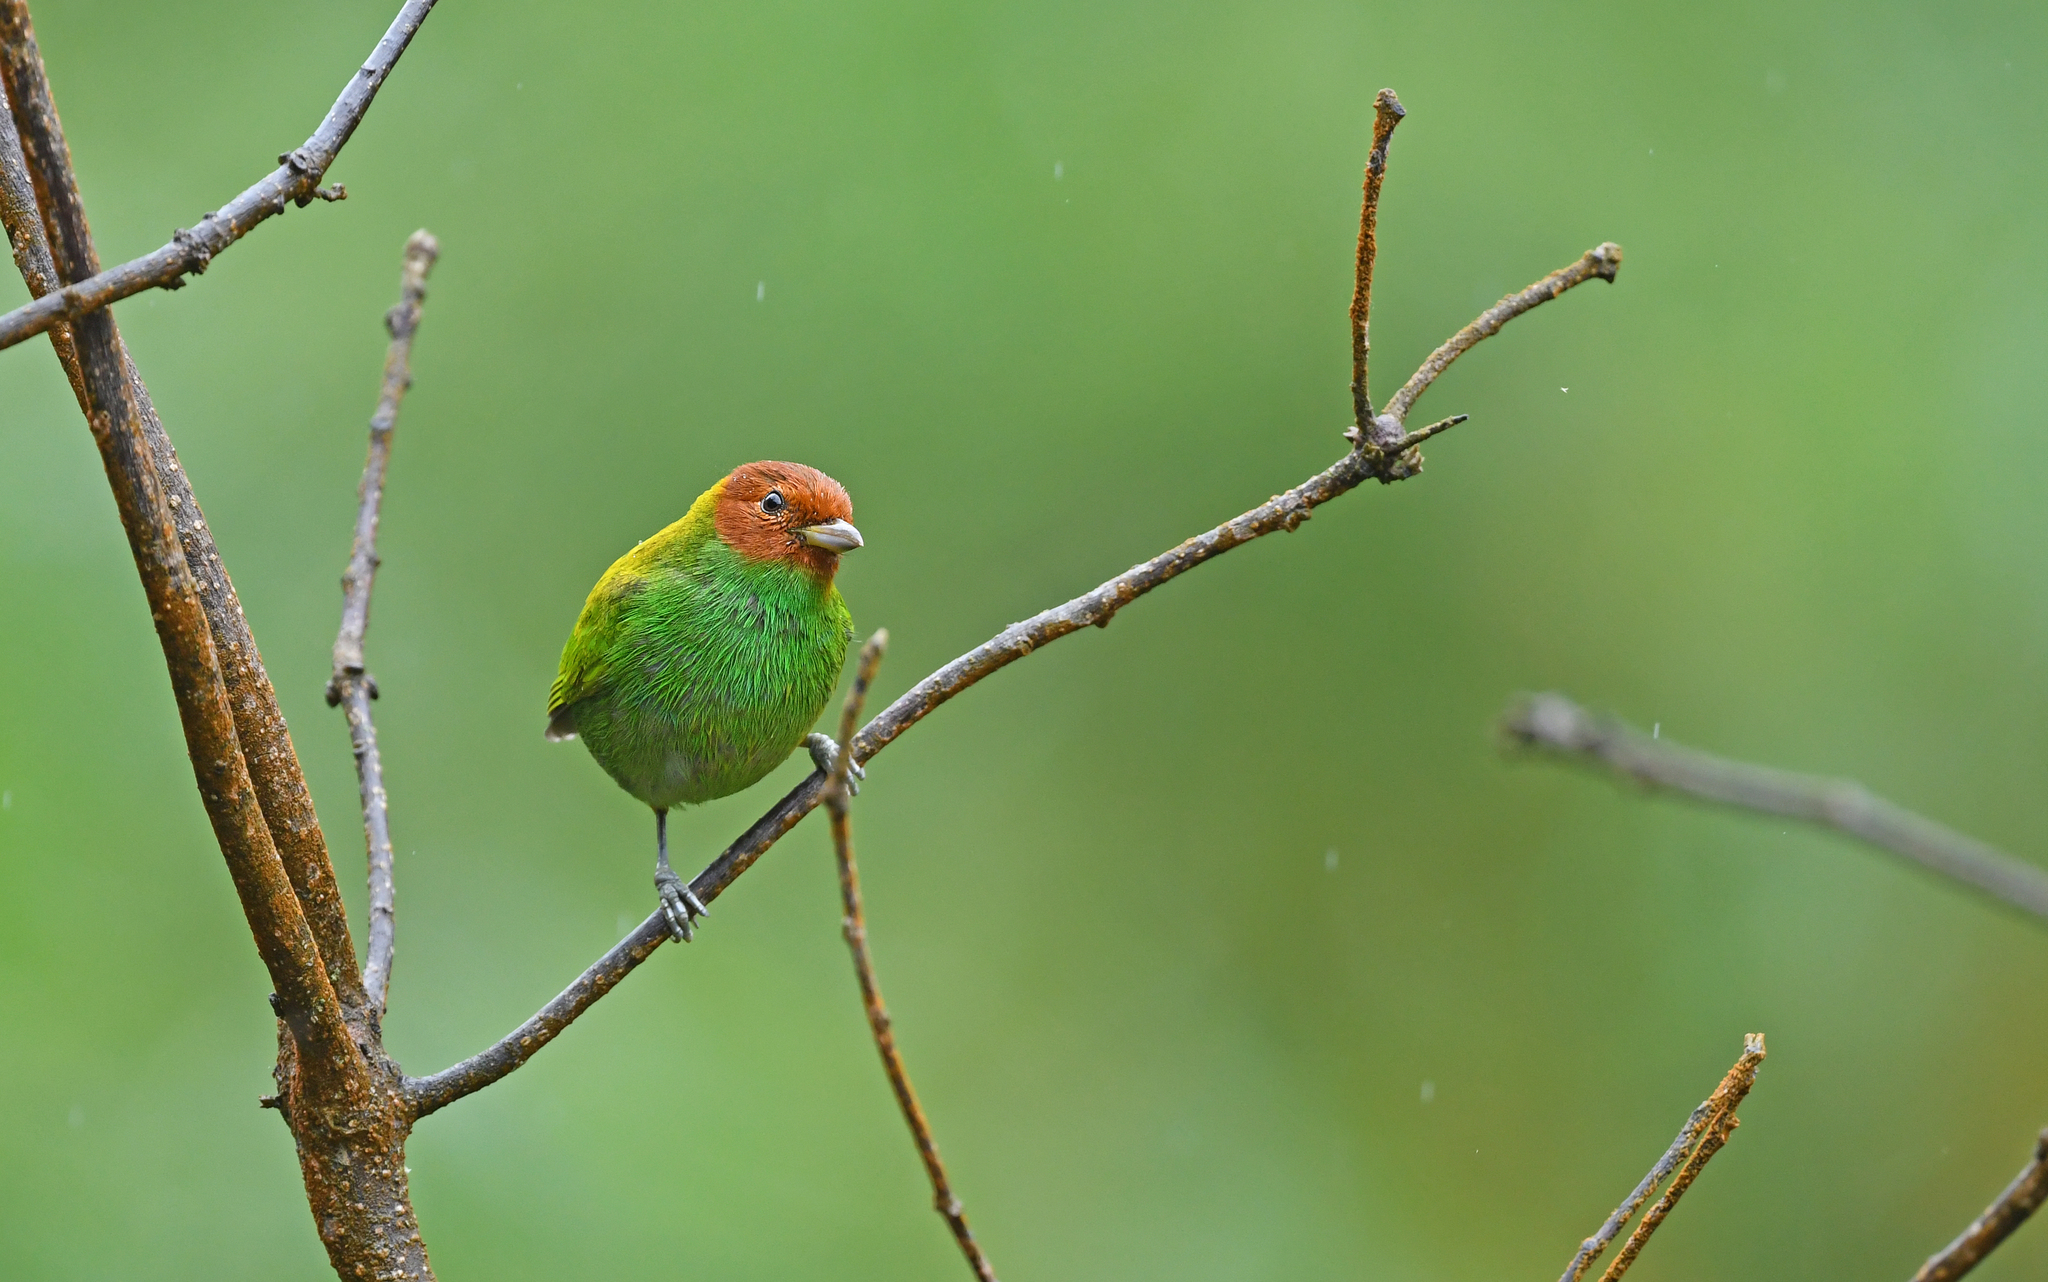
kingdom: Animalia
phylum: Chordata
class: Aves
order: Passeriformes
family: Thraupidae
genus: Tangara
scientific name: Tangara gyrola
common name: Bay-headed tanager
